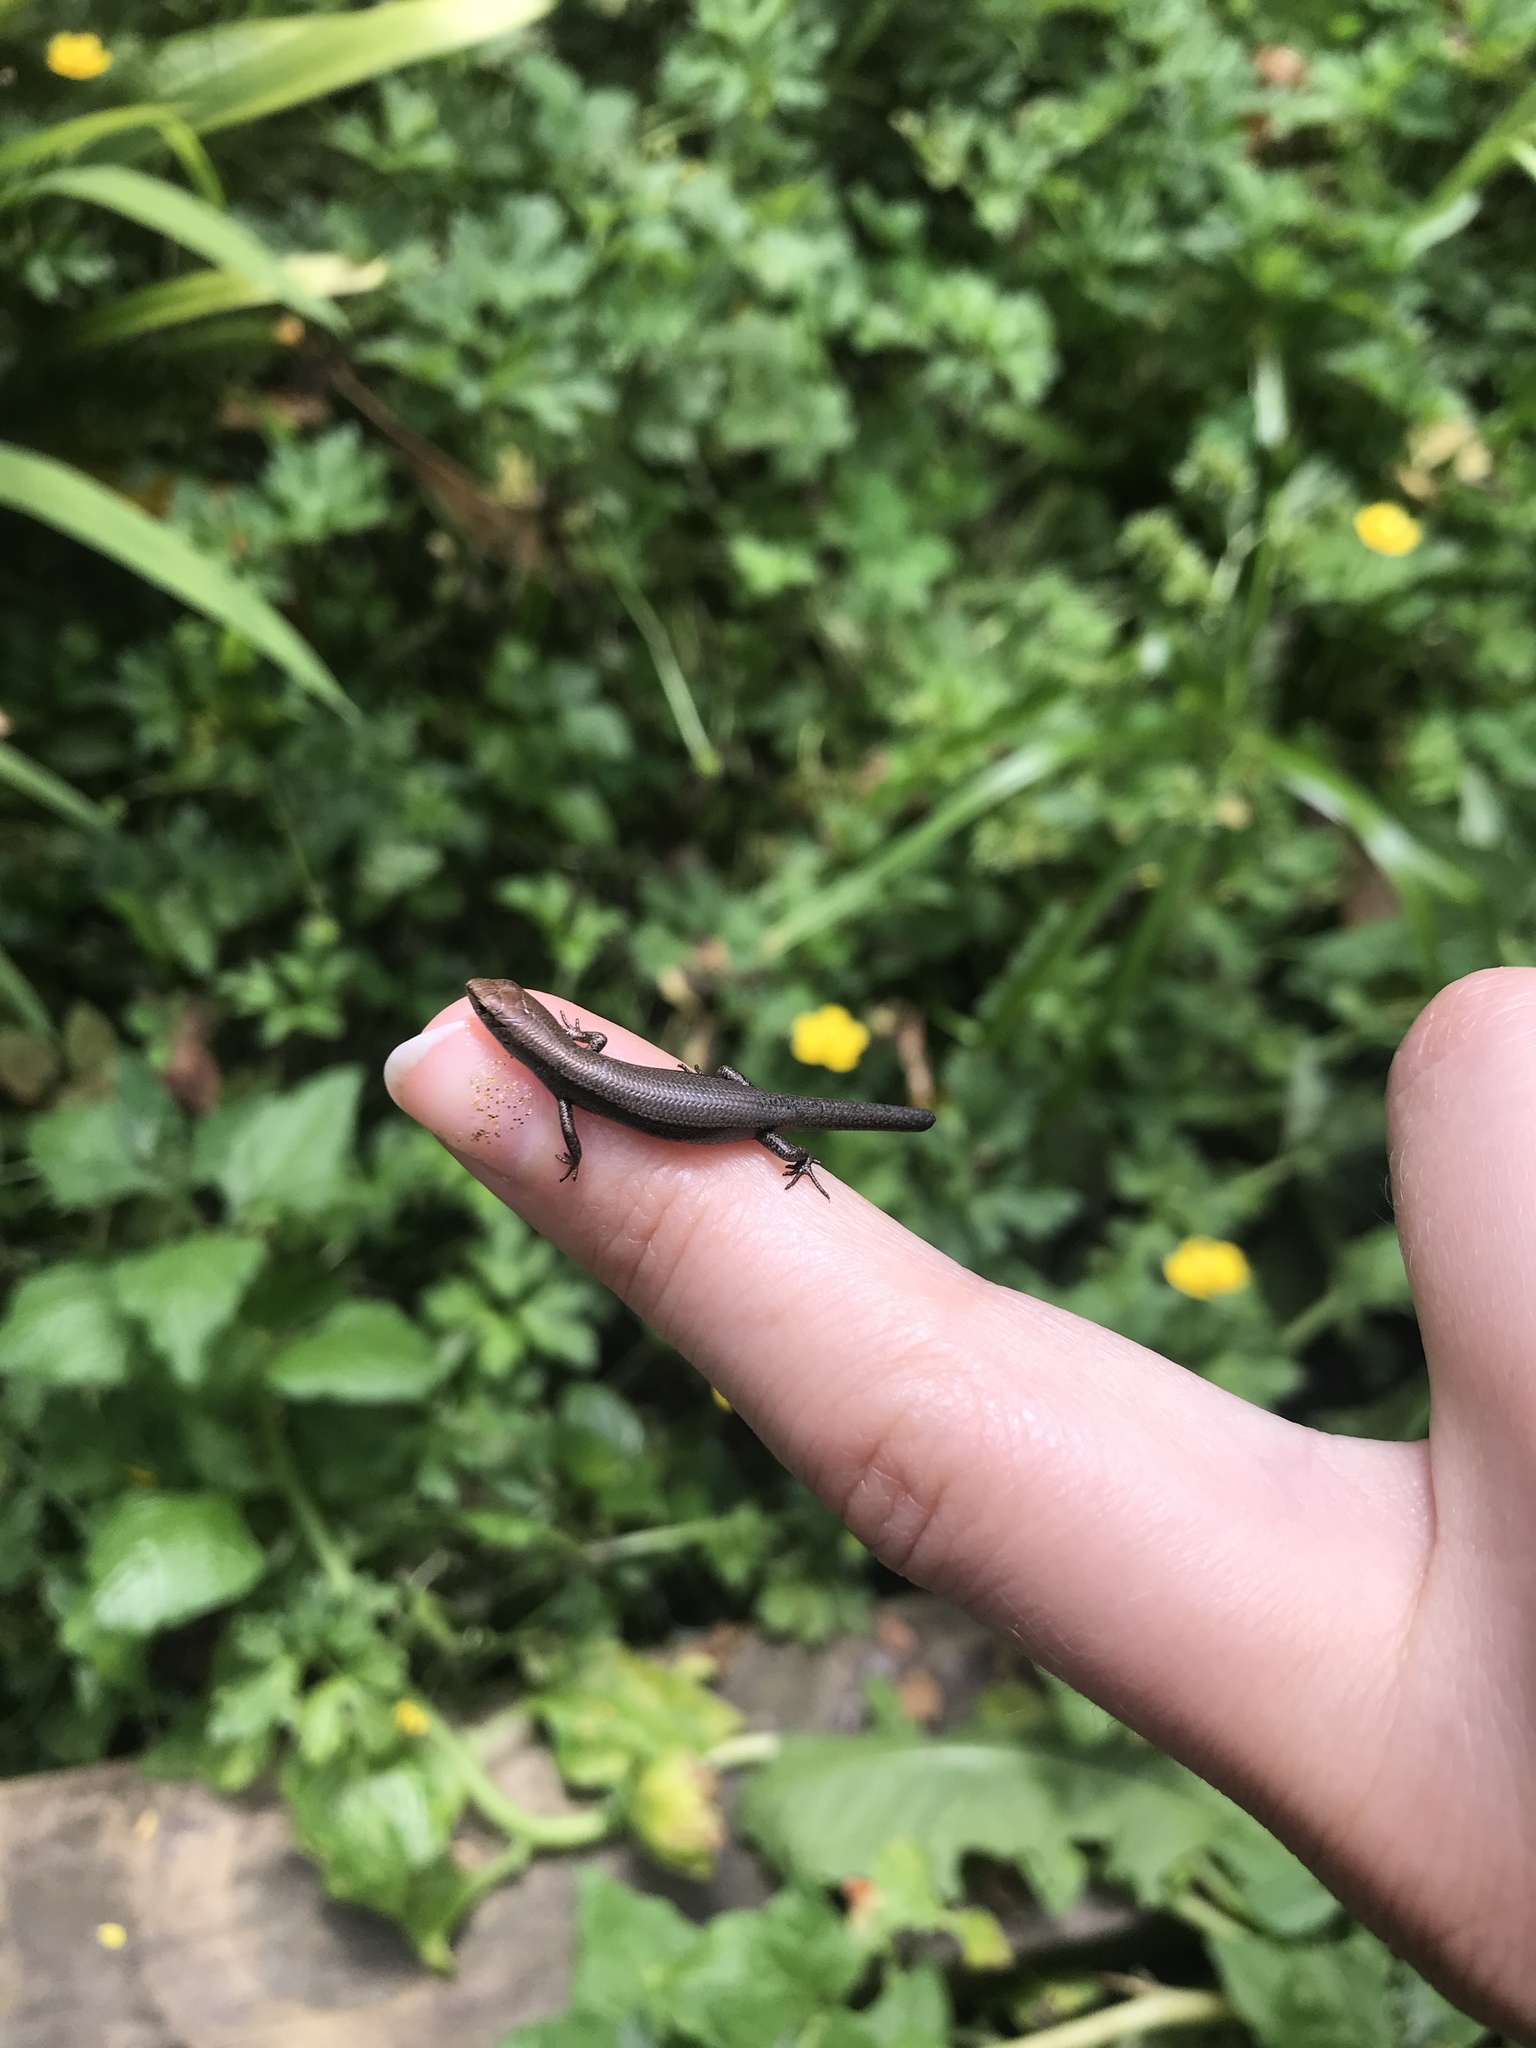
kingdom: Animalia
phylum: Chordata
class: Squamata
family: Scincidae
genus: Lampropholis
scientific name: Lampropholis delicata
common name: Plague skink
